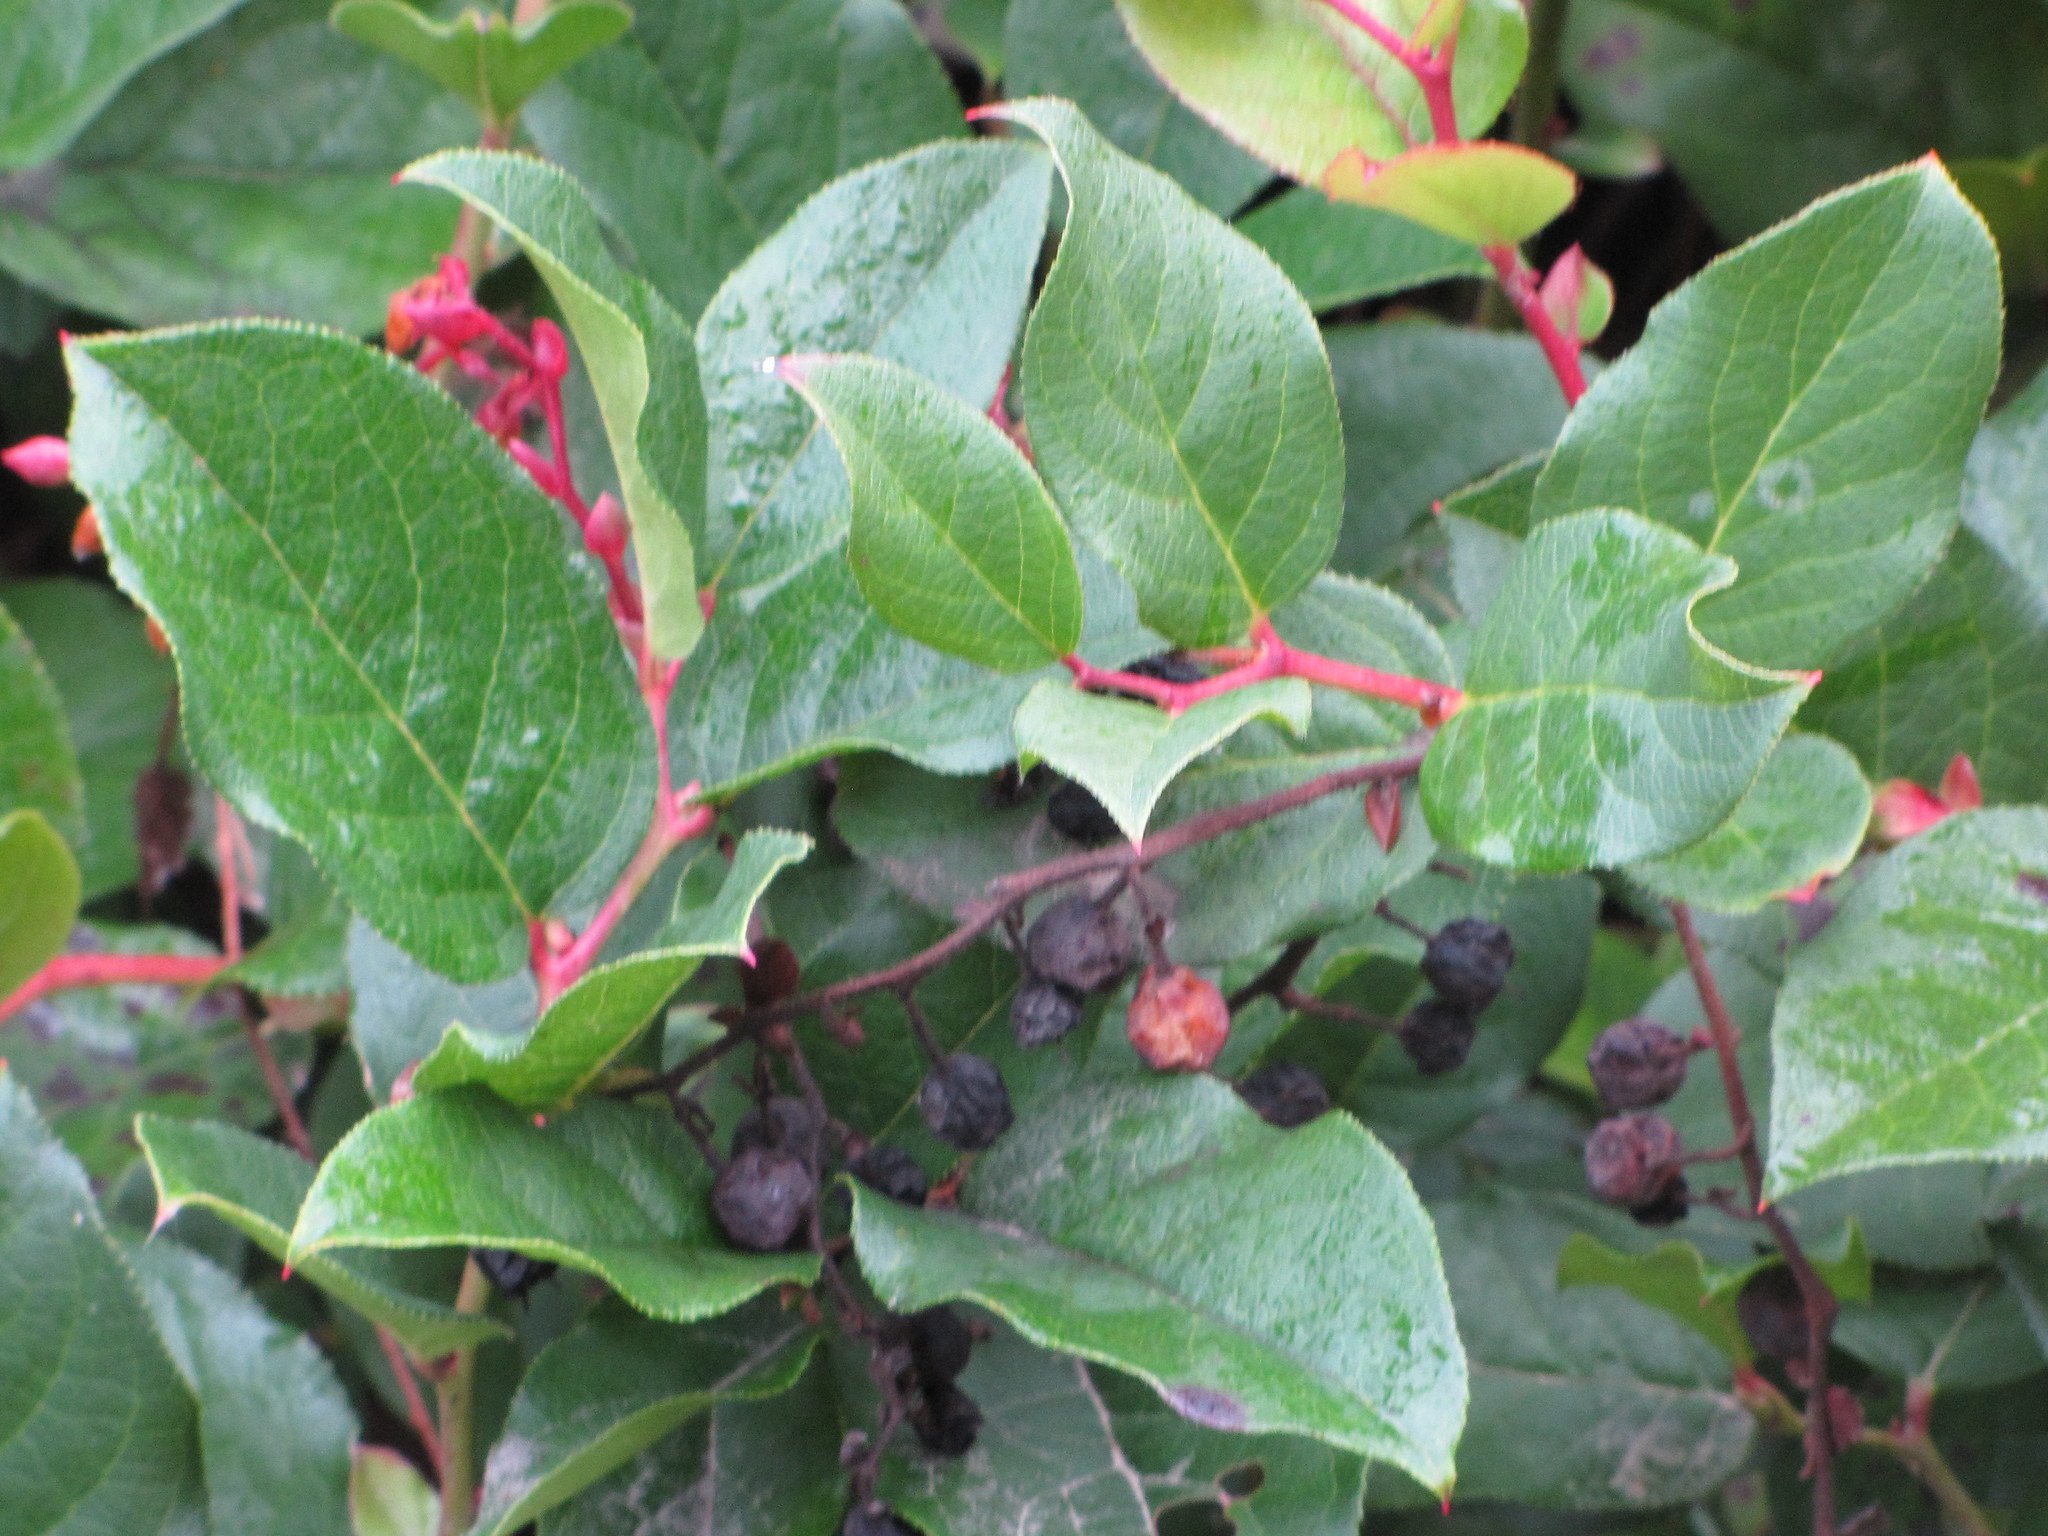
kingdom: Plantae
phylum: Tracheophyta
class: Magnoliopsida
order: Ericales
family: Ericaceae
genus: Gaultheria
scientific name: Gaultheria shallon
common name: Shallon
